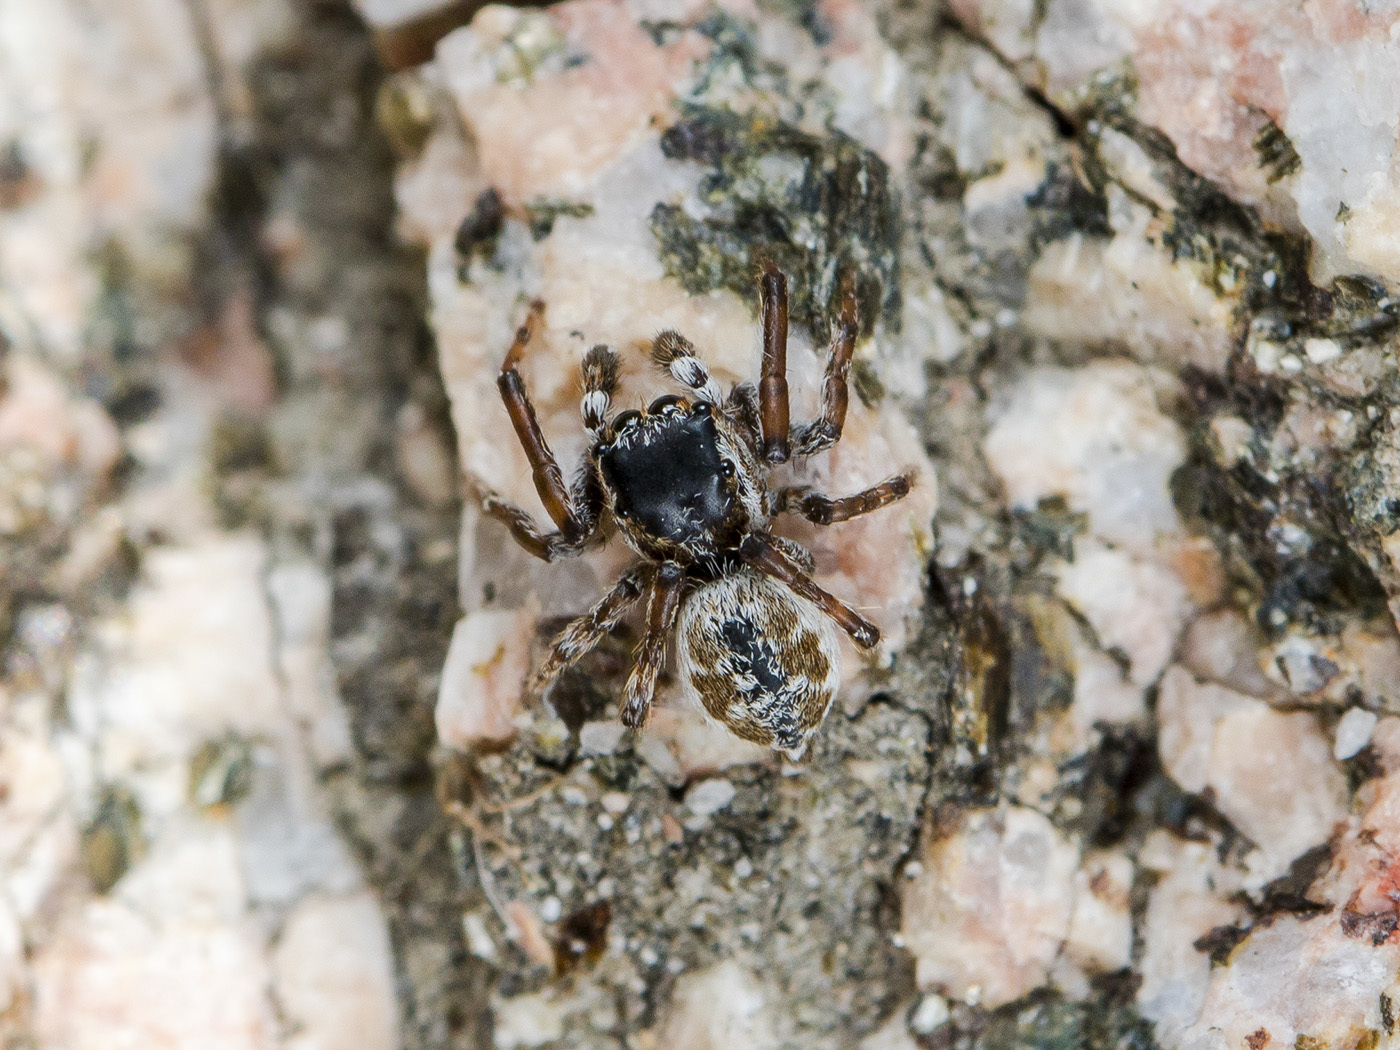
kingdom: Animalia
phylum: Arthropoda
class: Arachnida
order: Araneae
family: Salticidae
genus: Attulus
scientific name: Attulus avocator
